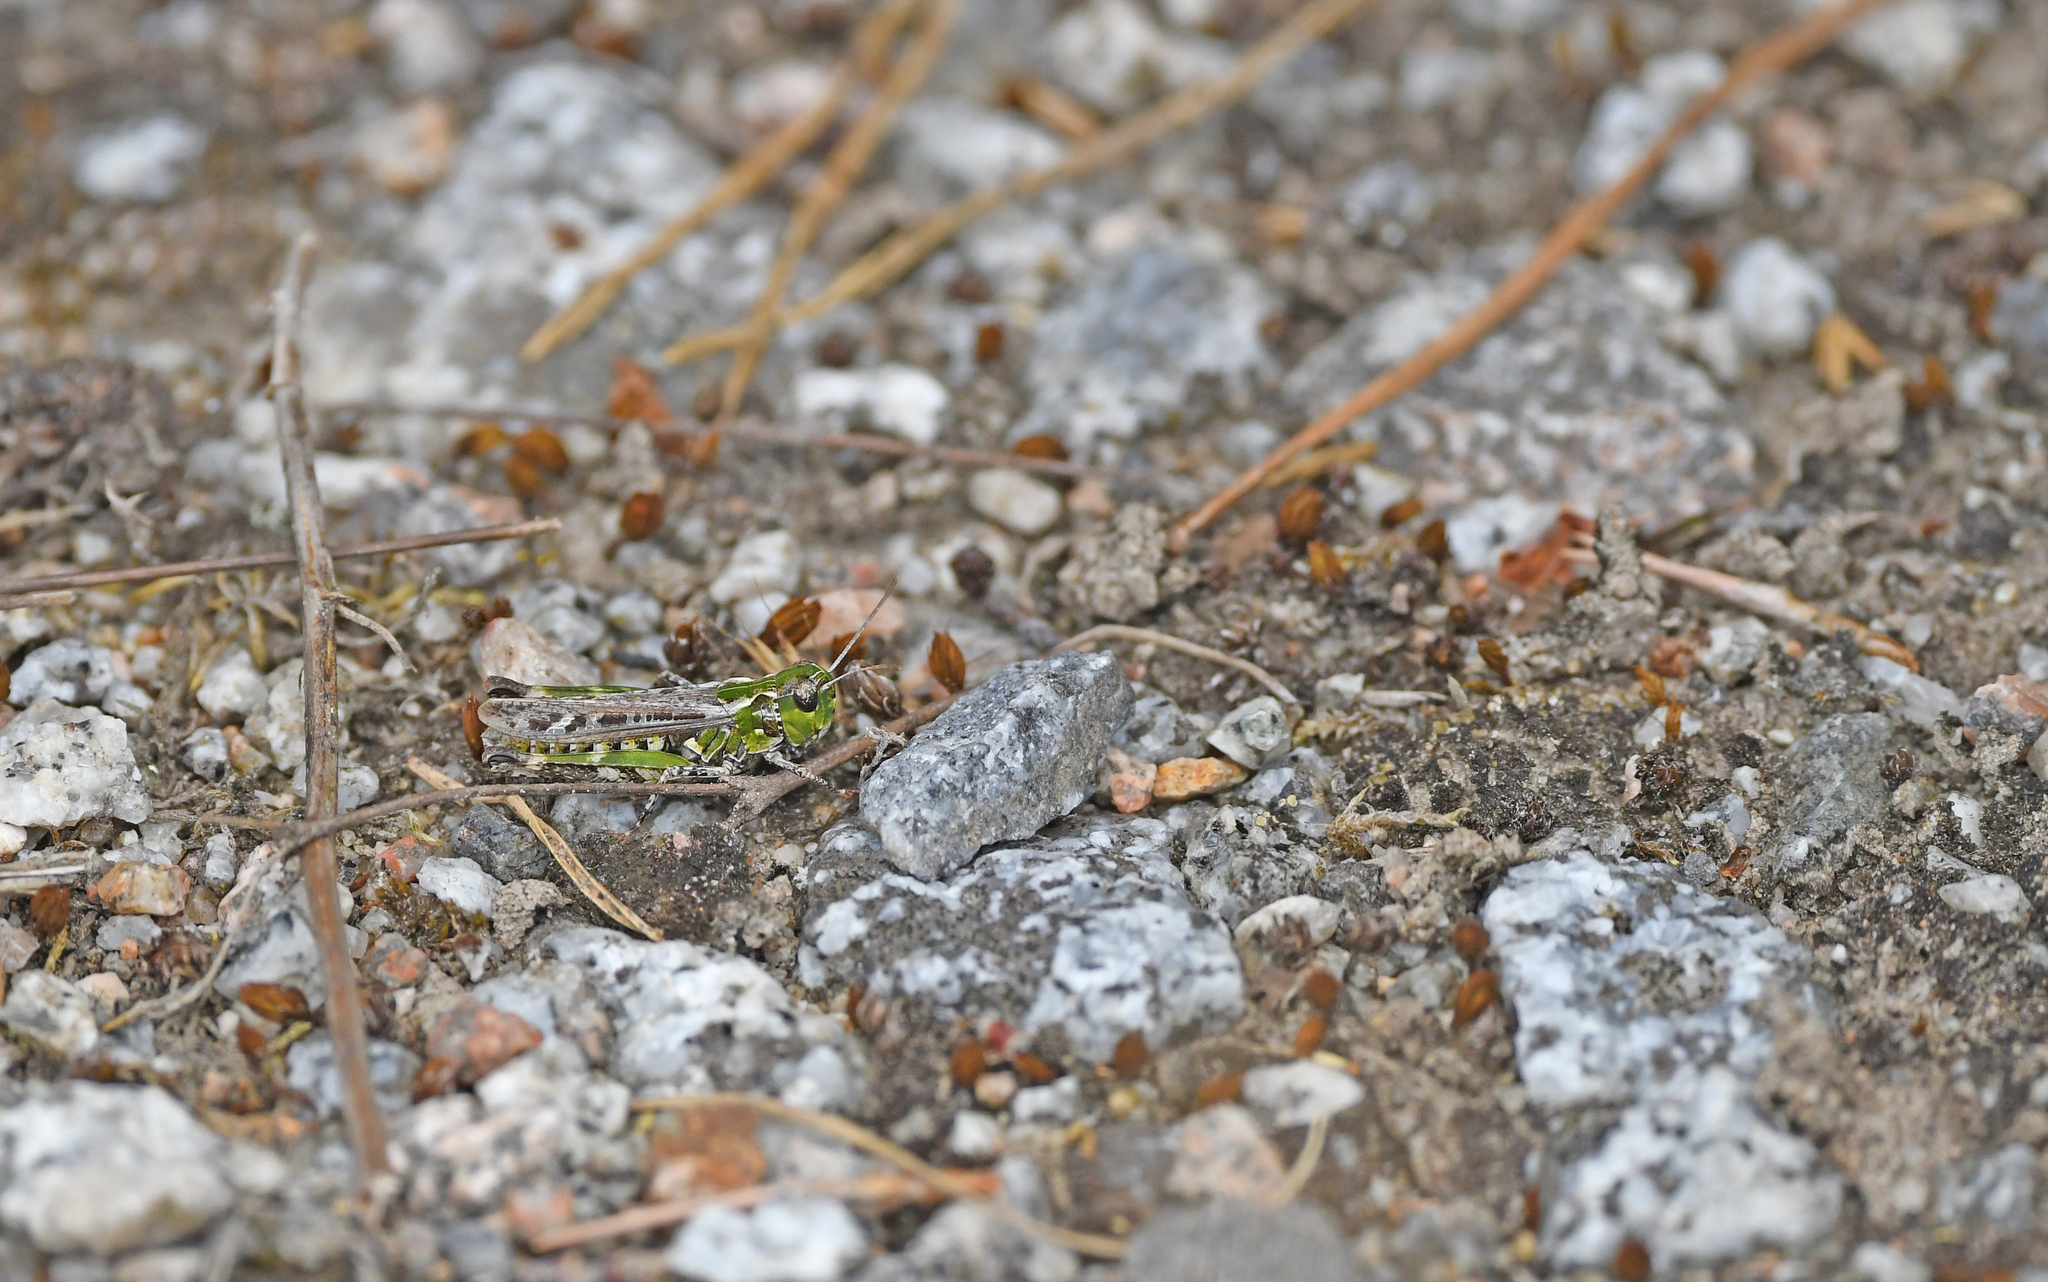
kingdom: Animalia
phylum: Arthropoda
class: Insecta
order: Orthoptera
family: Acrididae
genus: Myrmeleotettix
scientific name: Myrmeleotettix maculatus
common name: Mottled grasshopper
